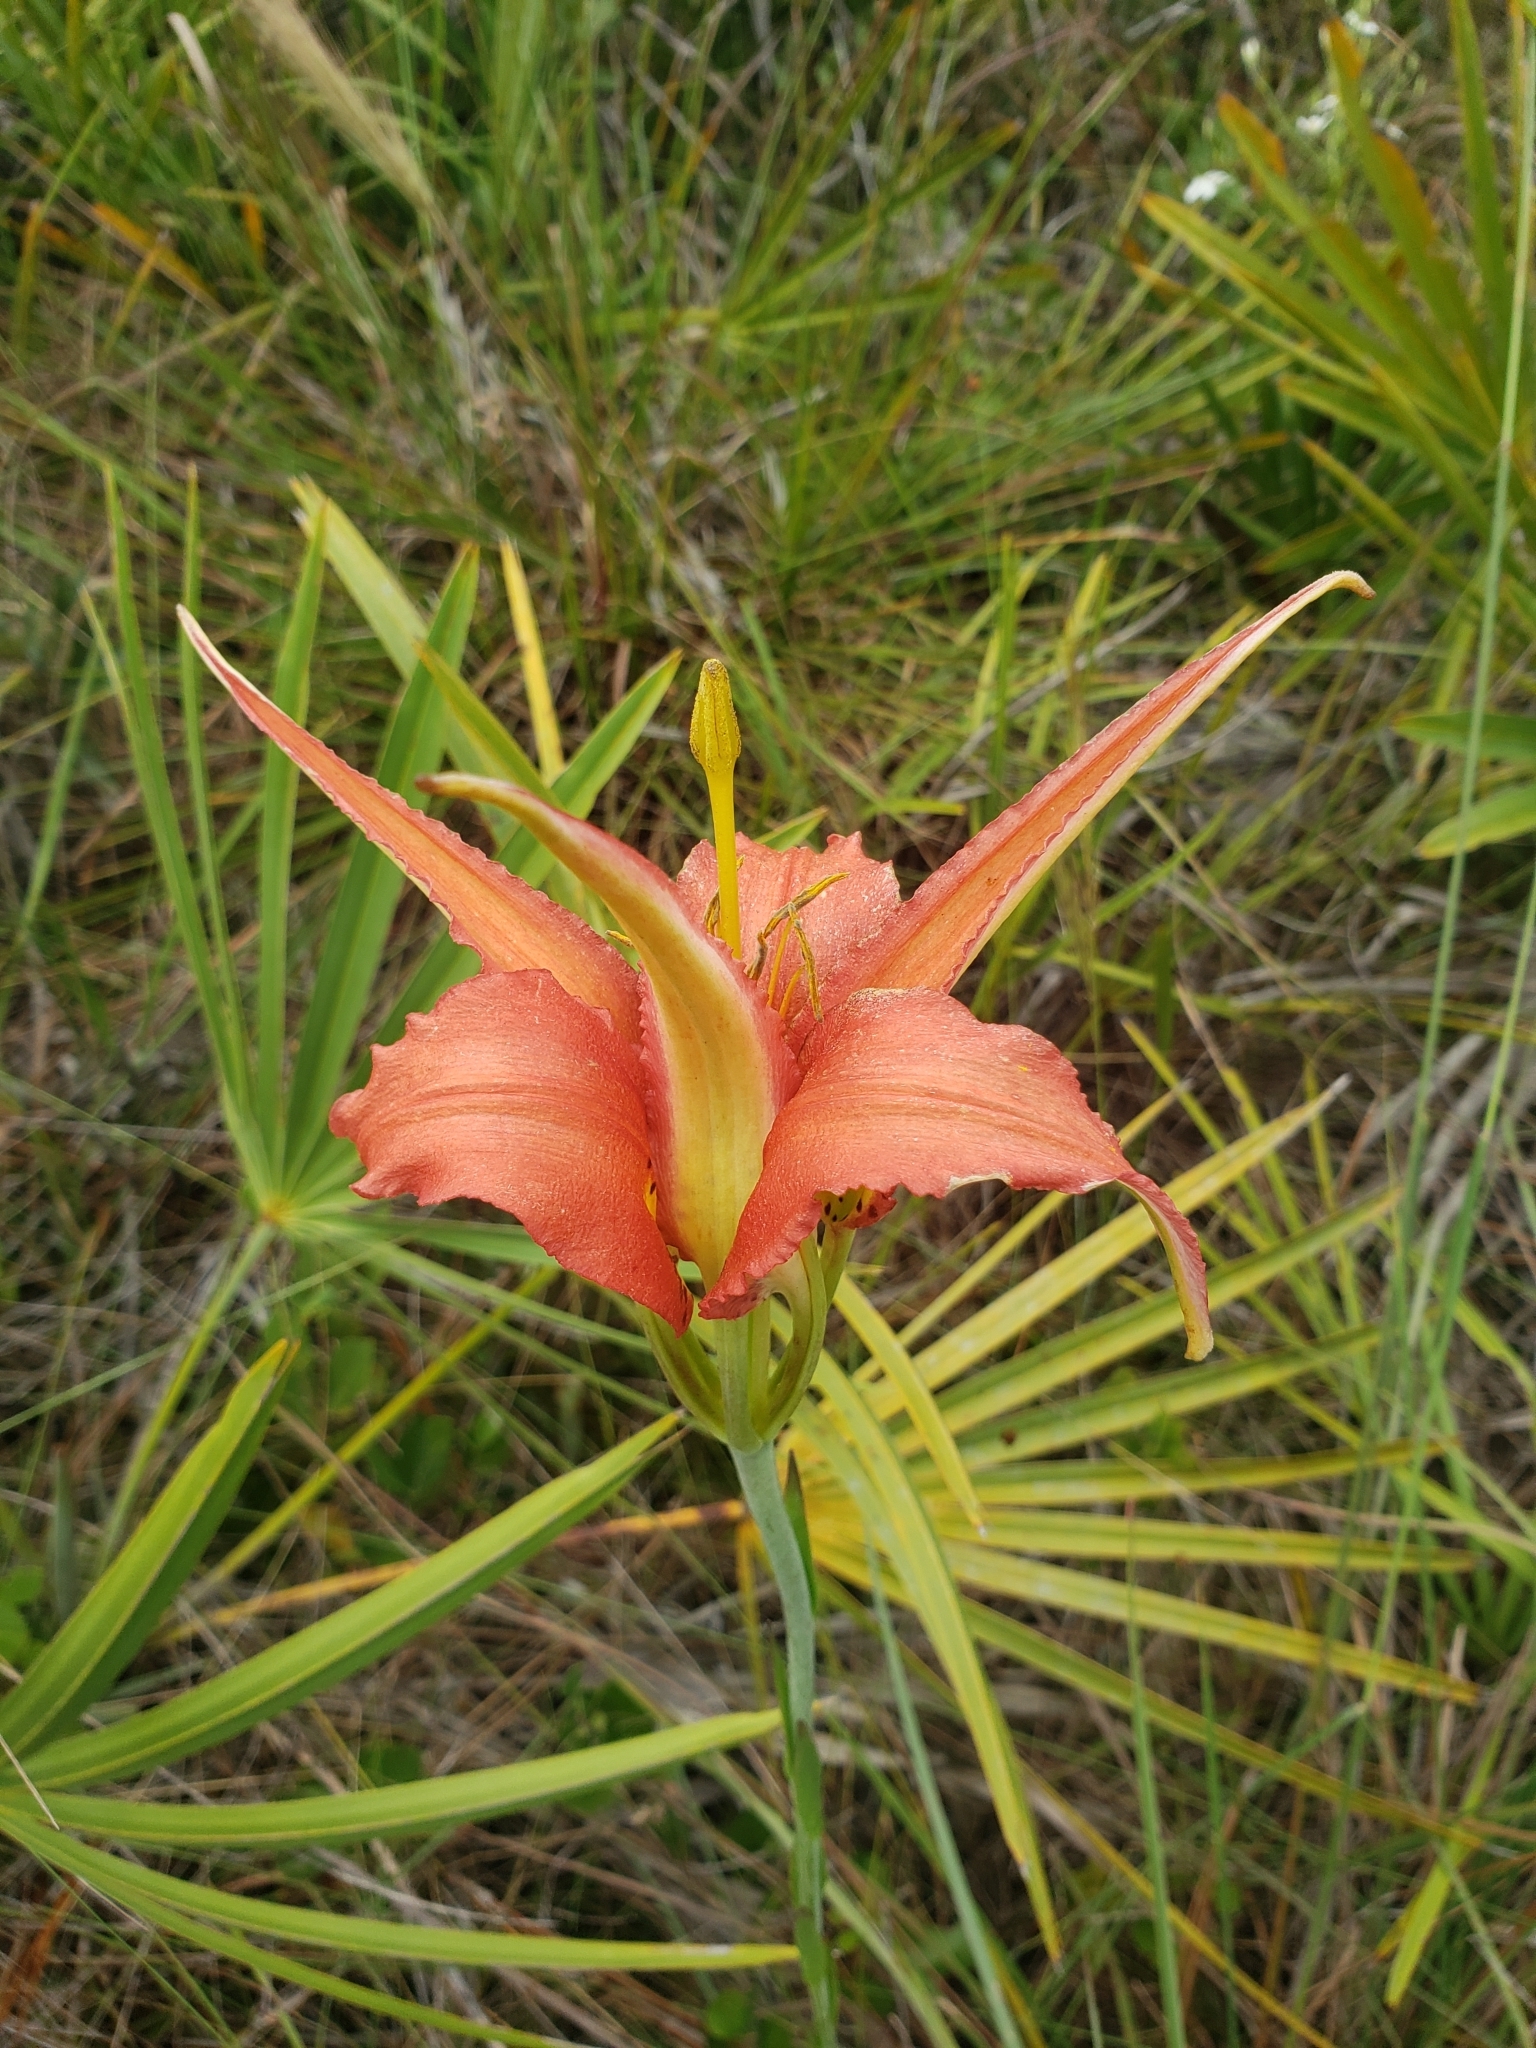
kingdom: Plantae
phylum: Tracheophyta
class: Liliopsida
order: Liliales
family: Liliaceae
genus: Lilium
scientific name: Lilium catesbaei
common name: Catesby's lily
